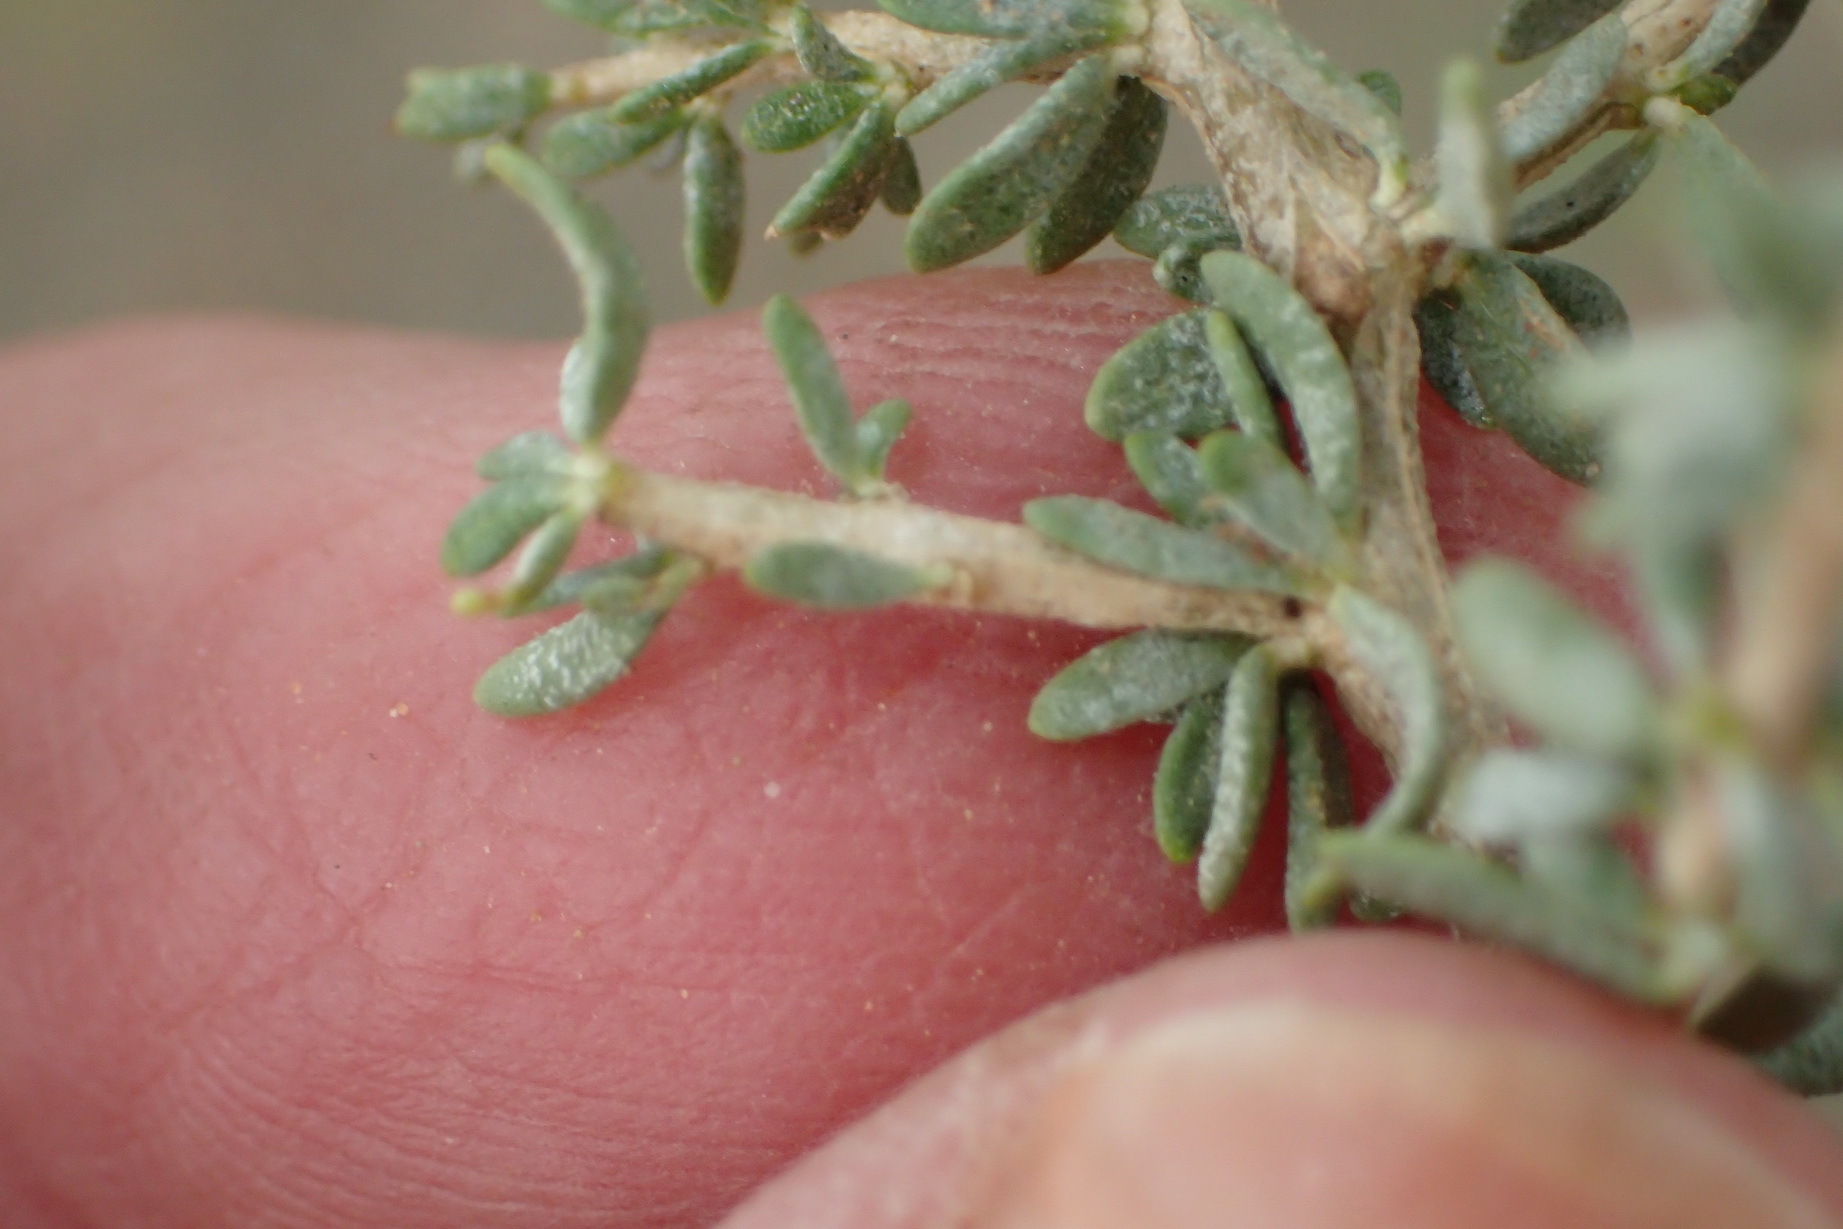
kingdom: Plantae
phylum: Tracheophyta
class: Magnoliopsida
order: Solanales
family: Solanaceae
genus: Lycium
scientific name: Lycium schizocalyx
